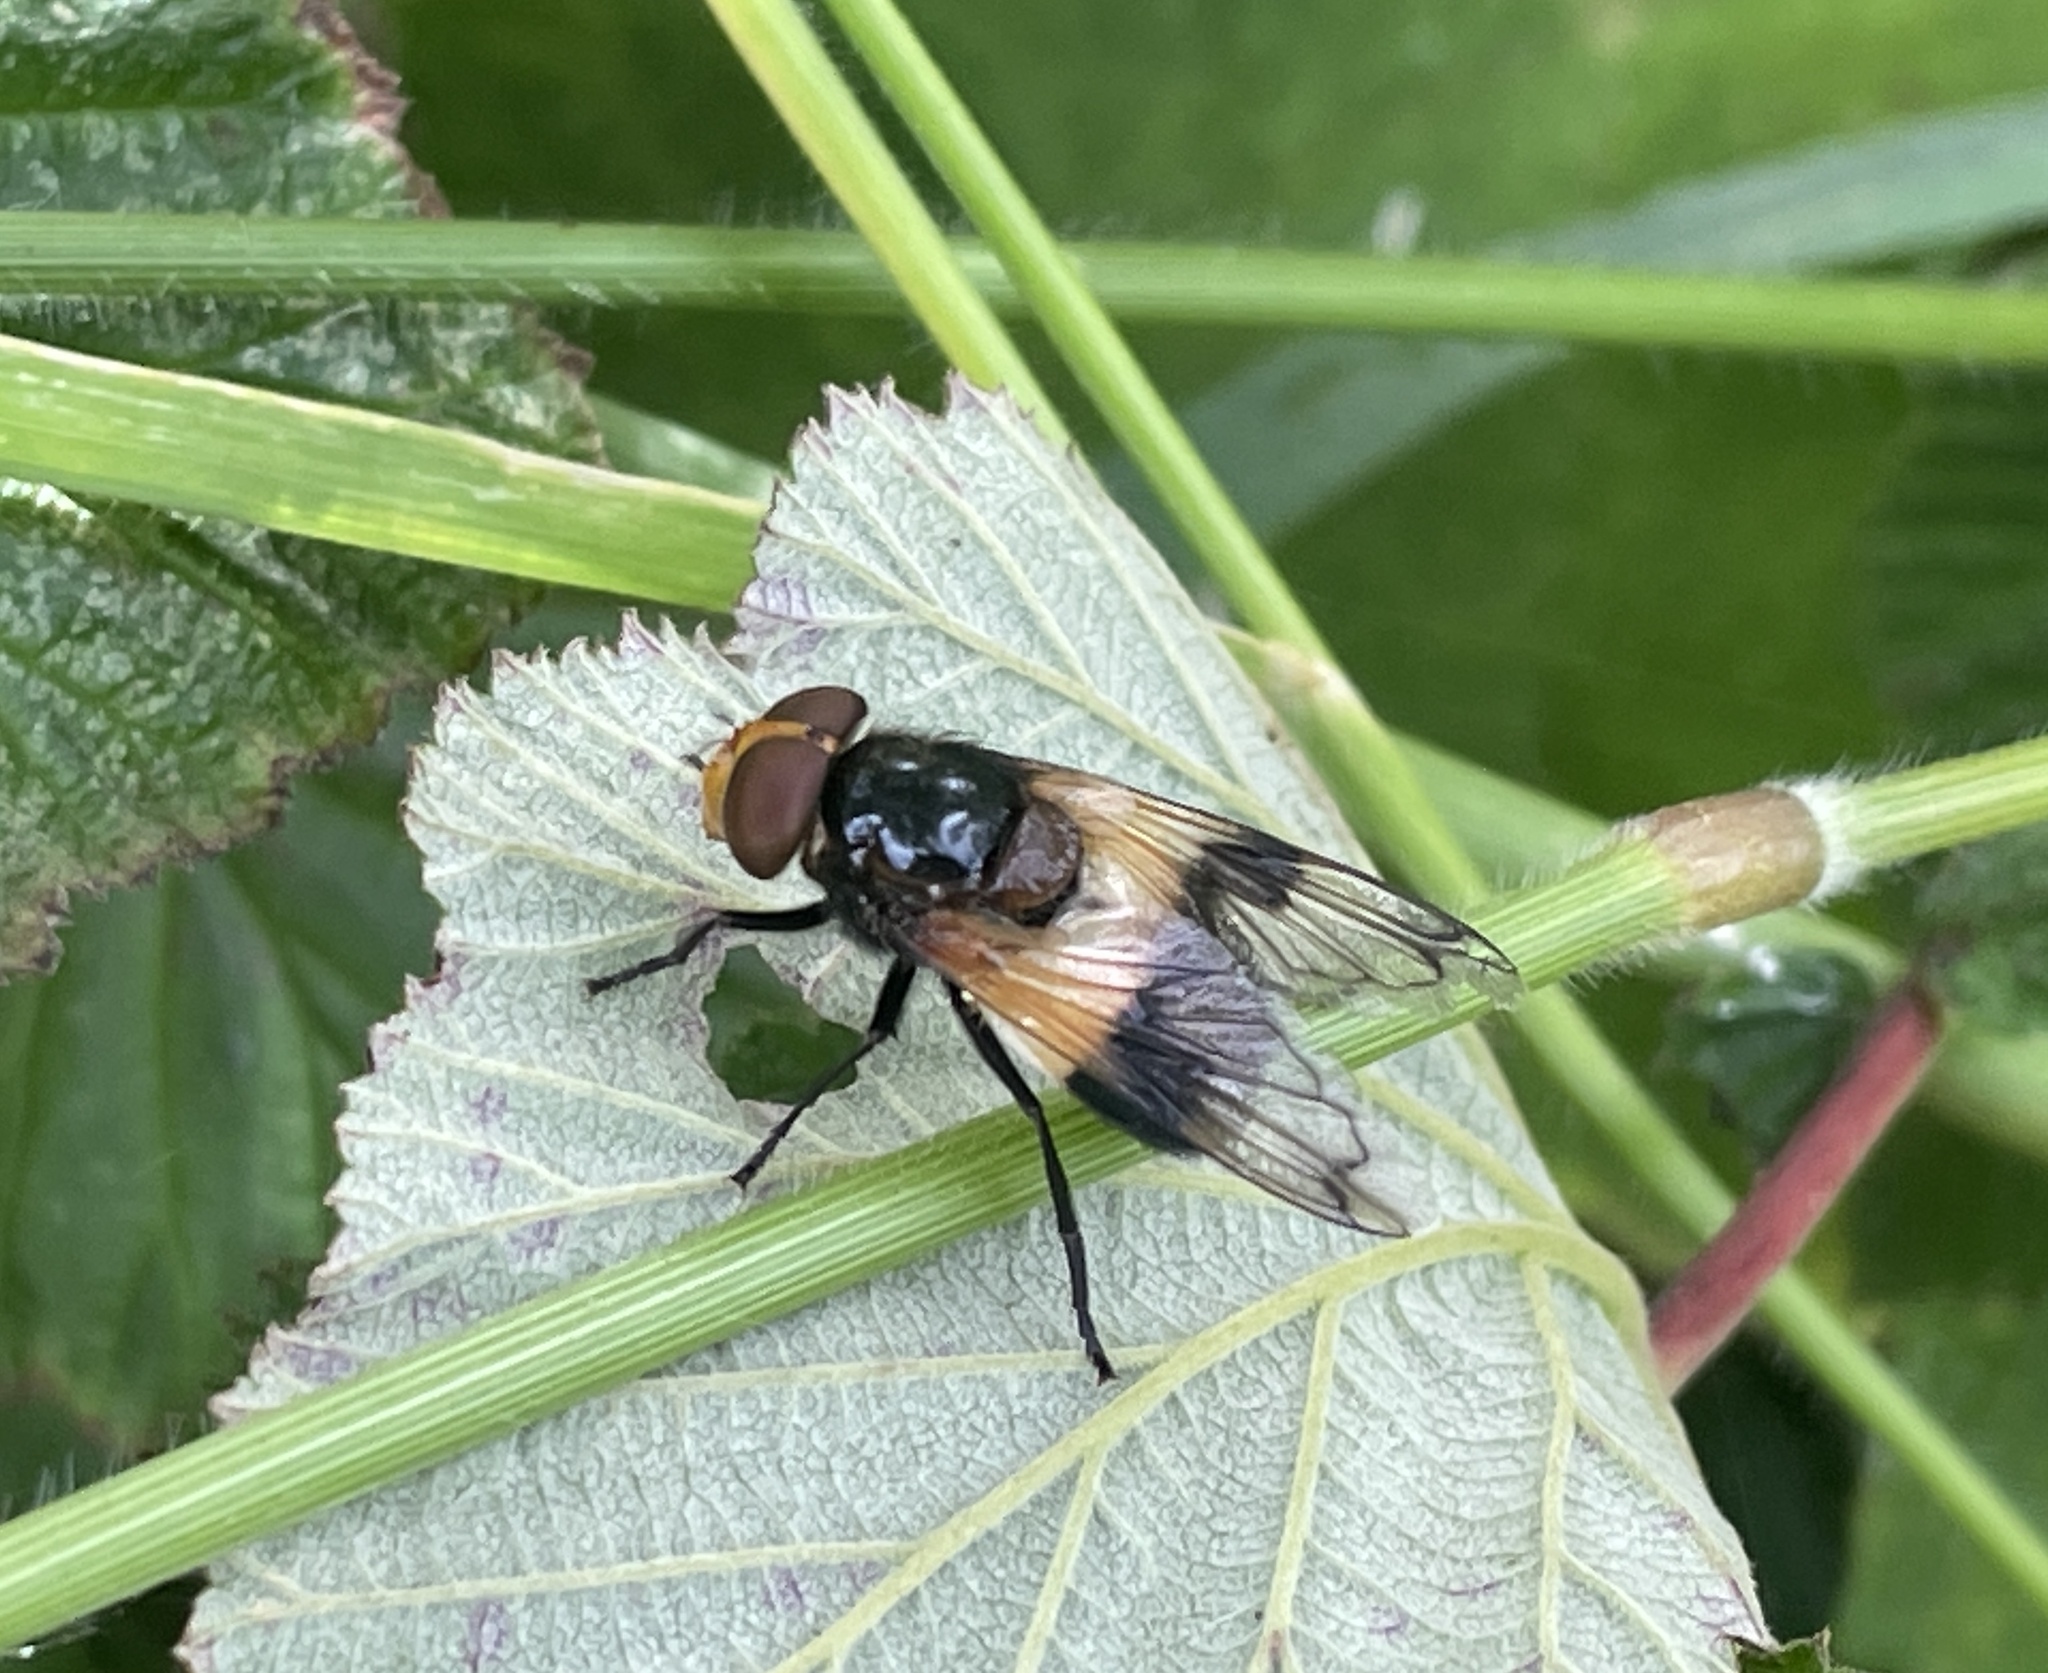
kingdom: Animalia
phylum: Arthropoda
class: Insecta
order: Diptera
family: Syrphidae
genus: Volucella
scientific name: Volucella pellucens
